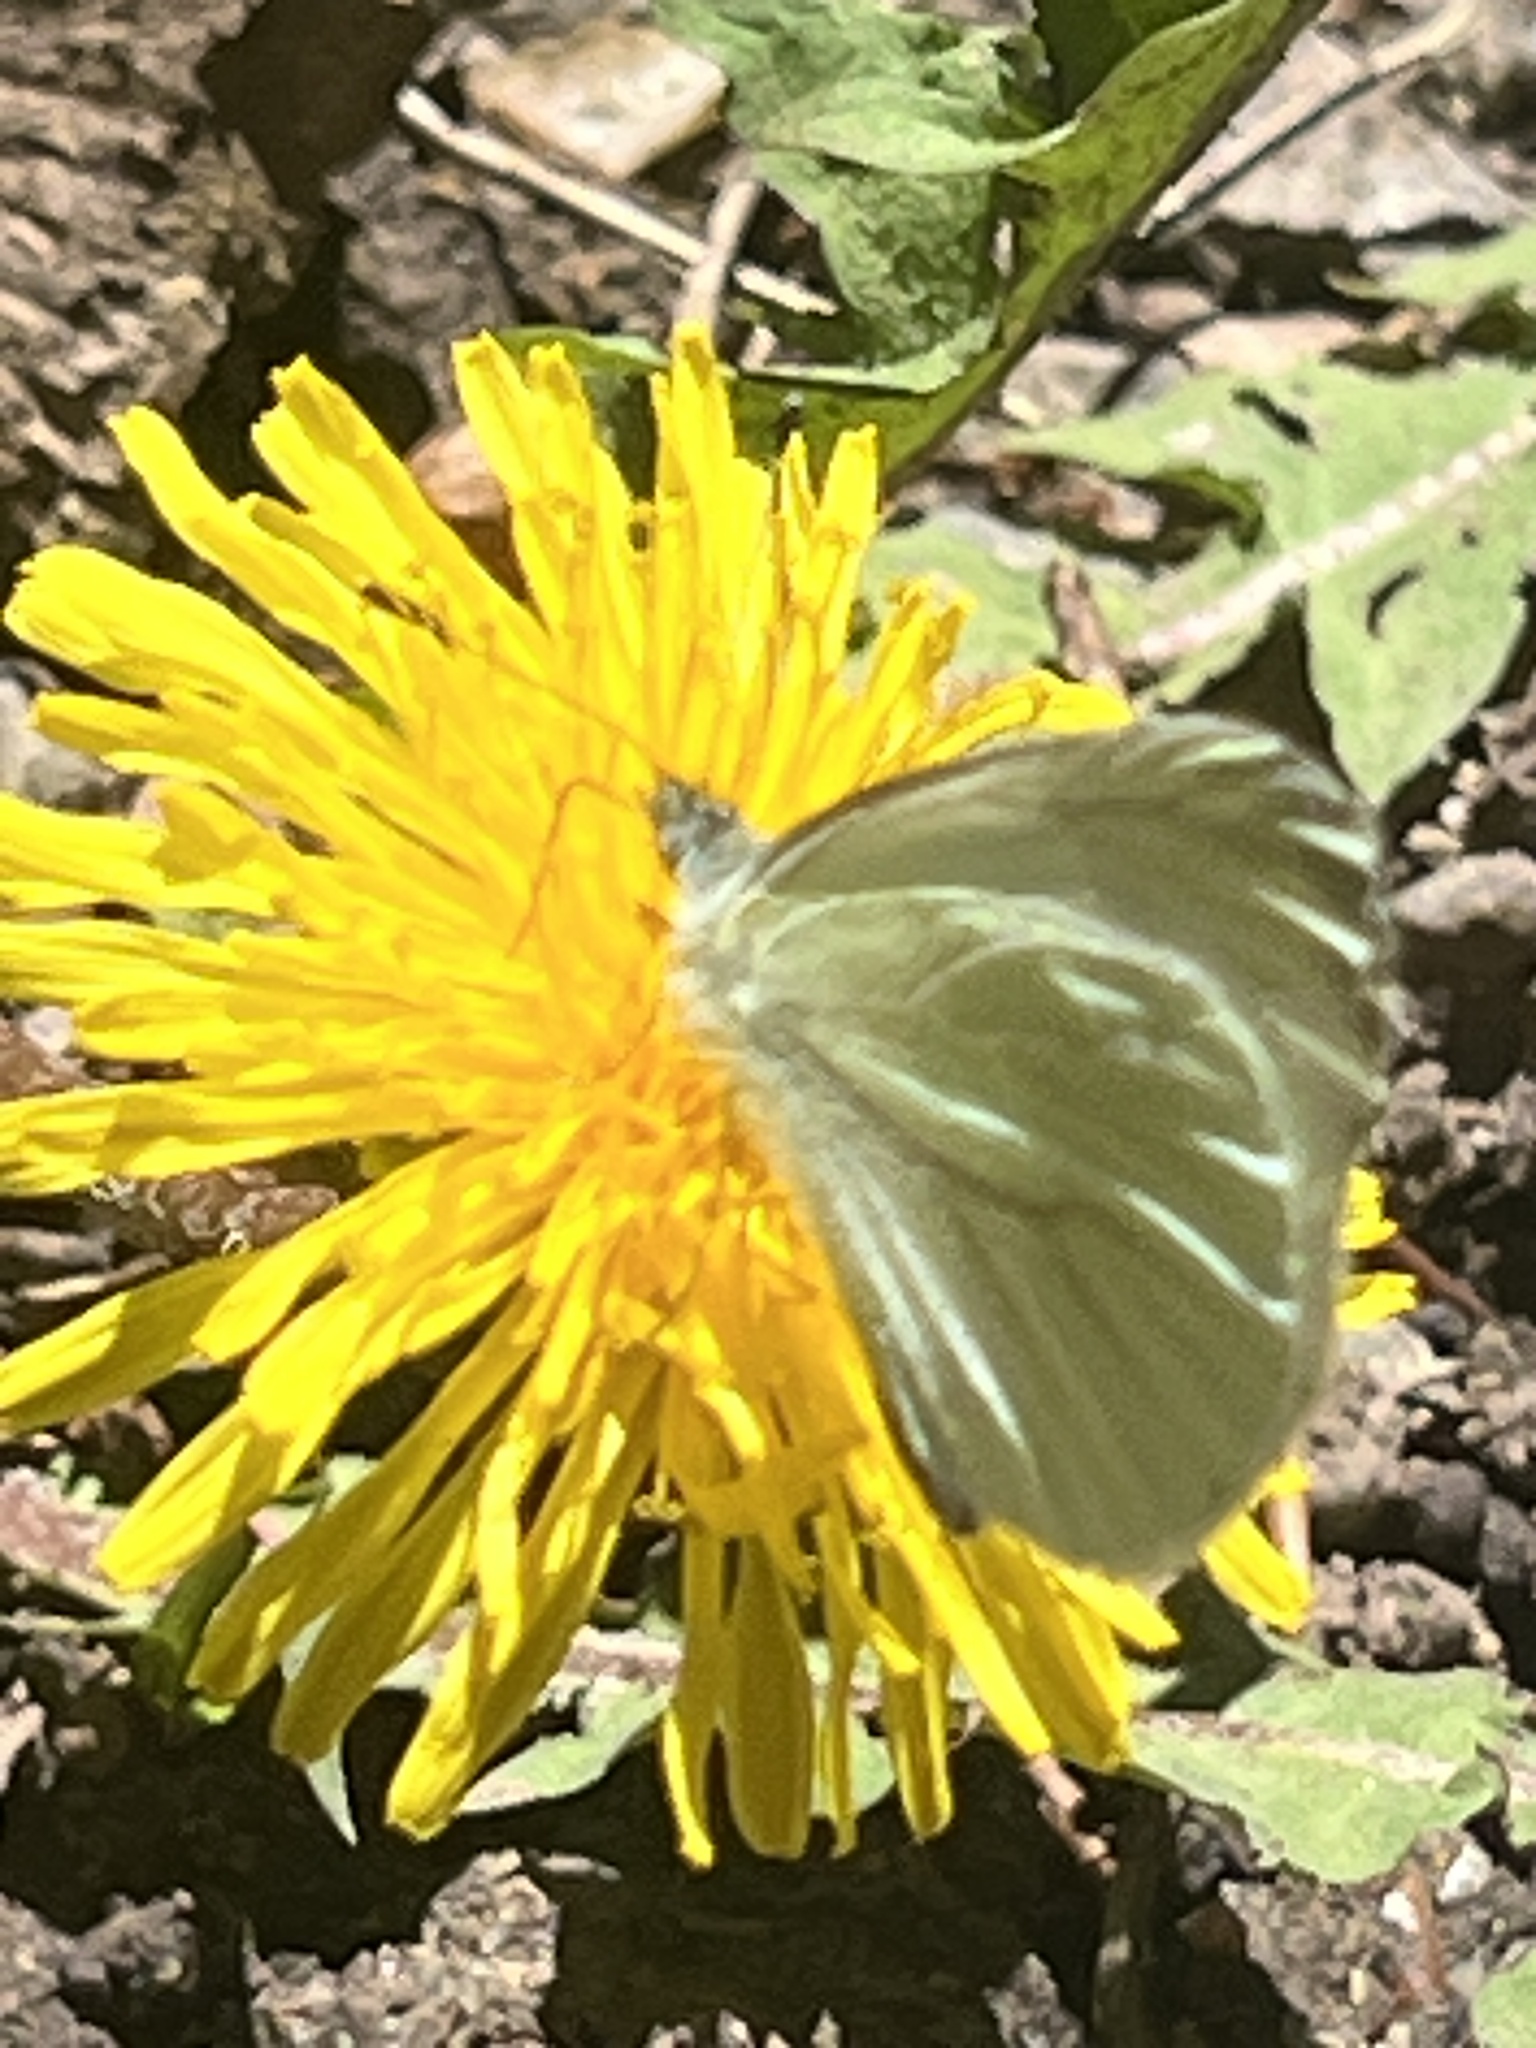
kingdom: Animalia
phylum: Arthropoda
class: Insecta
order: Lepidoptera
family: Pieridae
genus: Pieris
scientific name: Pieris marginalis
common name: Margined white
